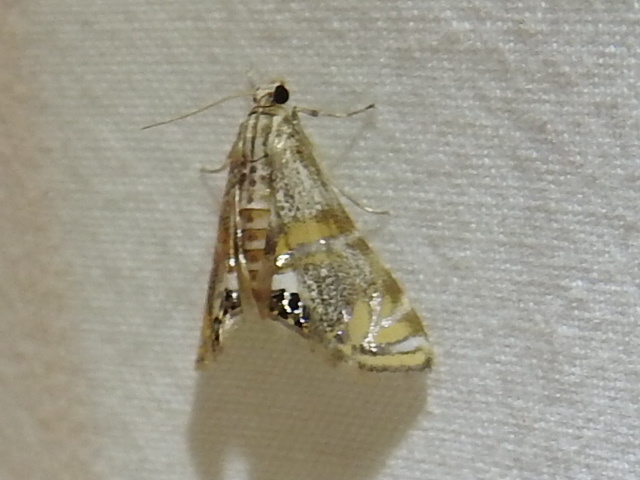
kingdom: Animalia
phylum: Arthropoda
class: Insecta
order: Lepidoptera
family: Crambidae
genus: Petrophila
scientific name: Petrophila cappsi
